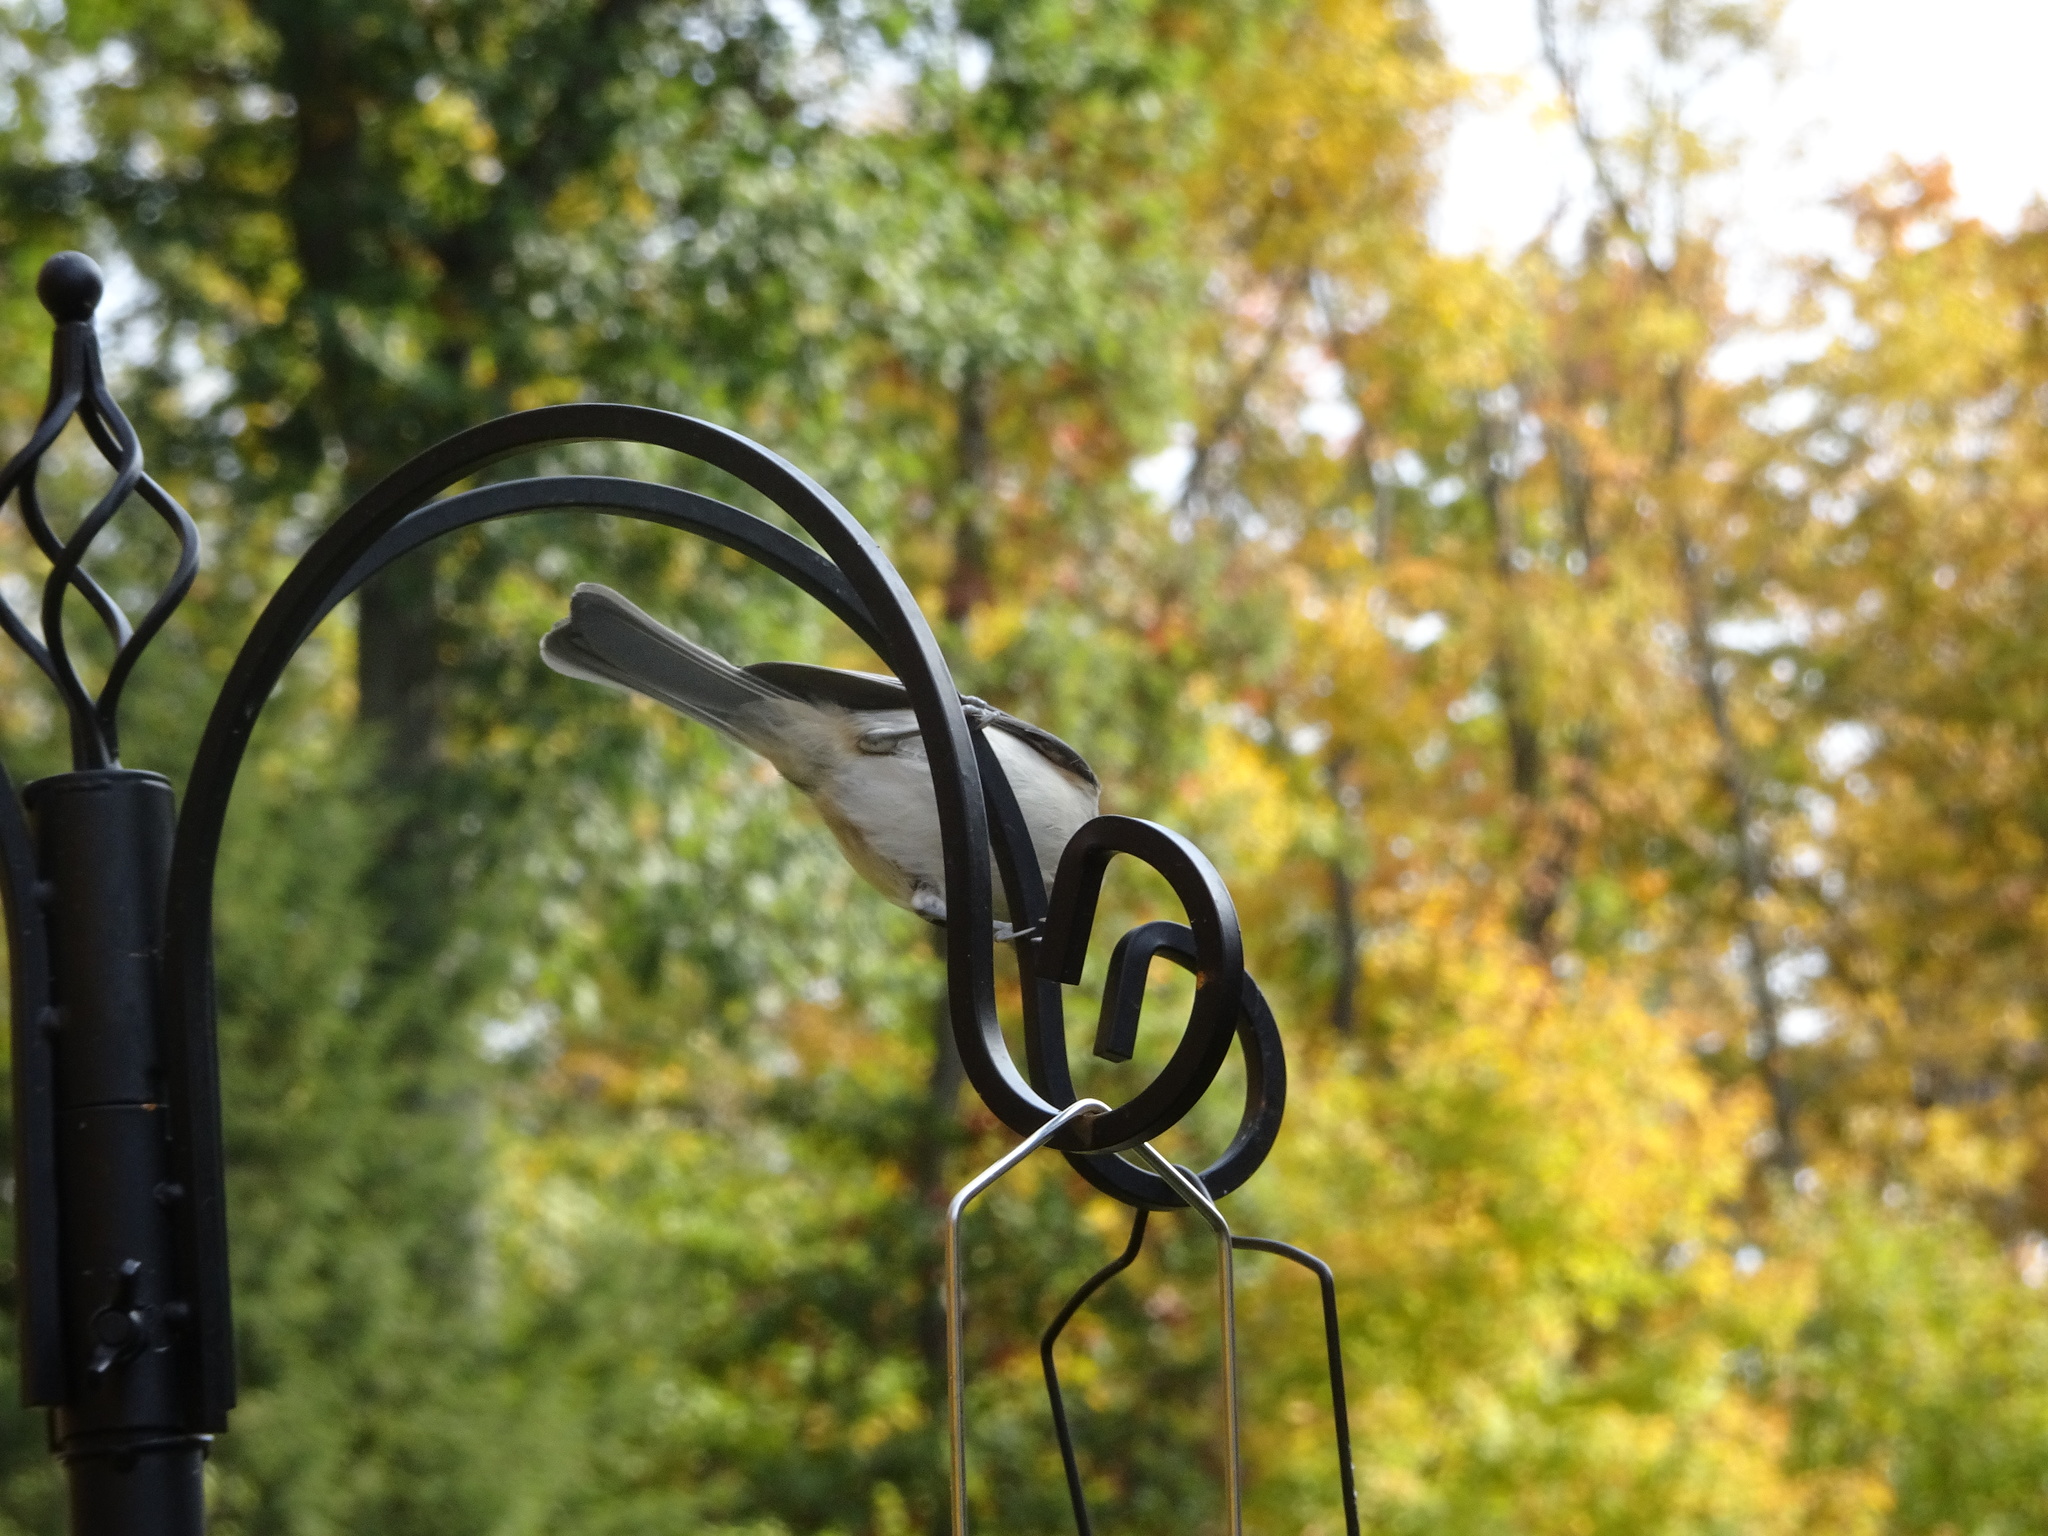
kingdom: Animalia
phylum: Chordata
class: Aves
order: Passeriformes
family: Paridae
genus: Baeolophus
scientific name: Baeolophus bicolor
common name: Tufted titmouse
